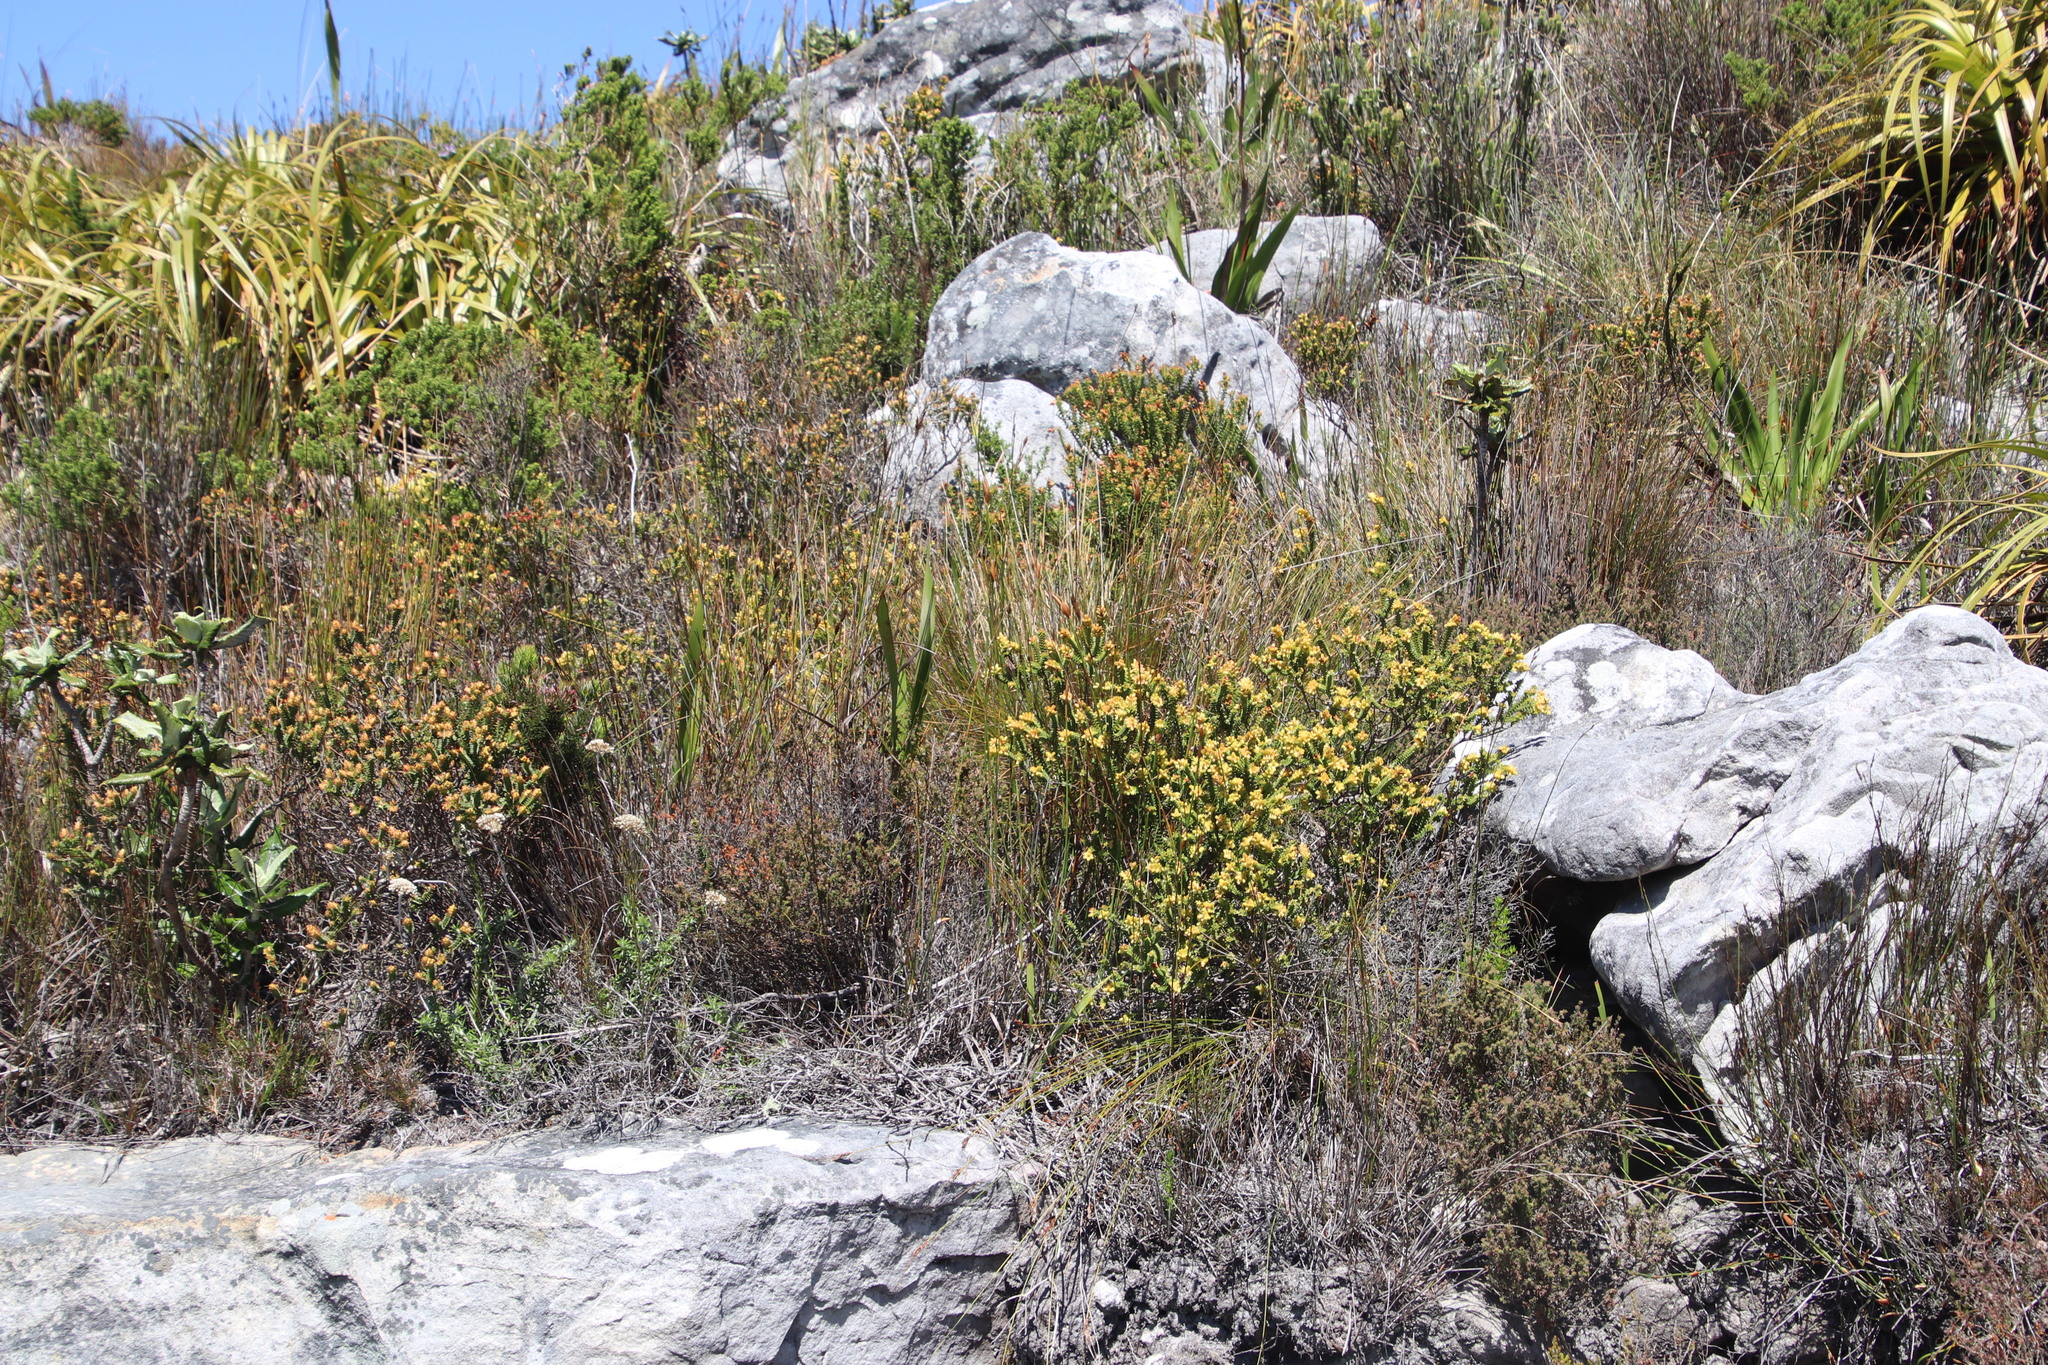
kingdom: Plantae
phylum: Tracheophyta
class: Magnoliopsida
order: Myrtales
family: Penaeaceae
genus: Penaea
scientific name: Penaea mucronata
